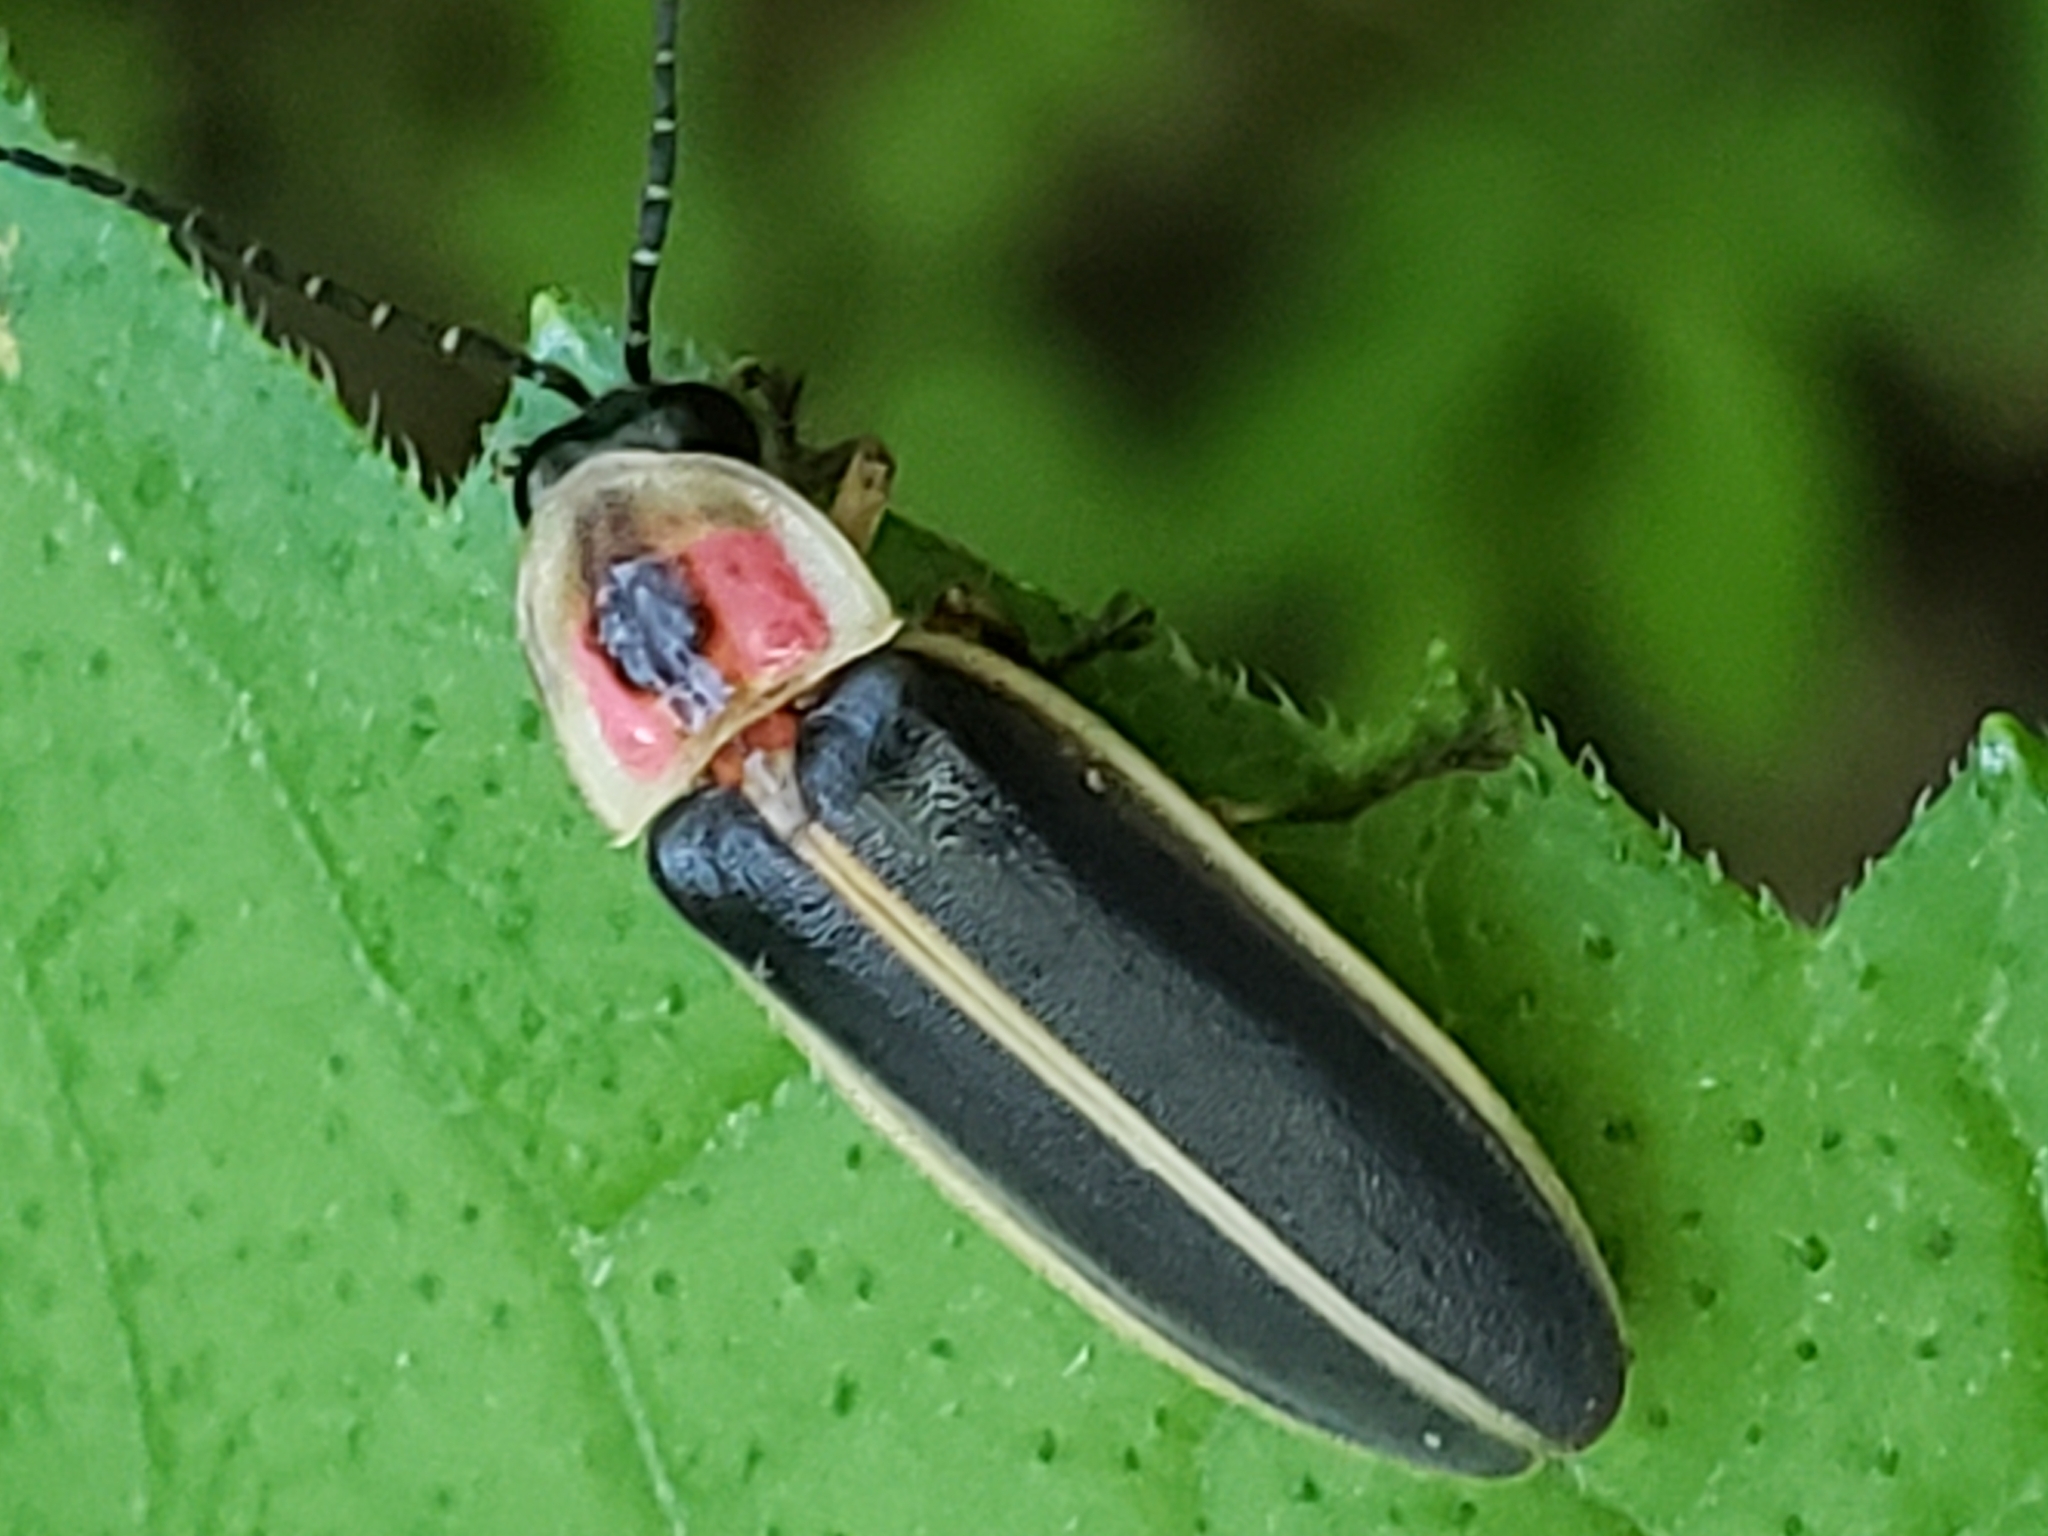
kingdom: Animalia
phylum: Arthropoda
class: Insecta
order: Coleoptera
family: Lampyridae
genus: Photinus
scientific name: Photinus pyralis
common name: Big dipper firefly
